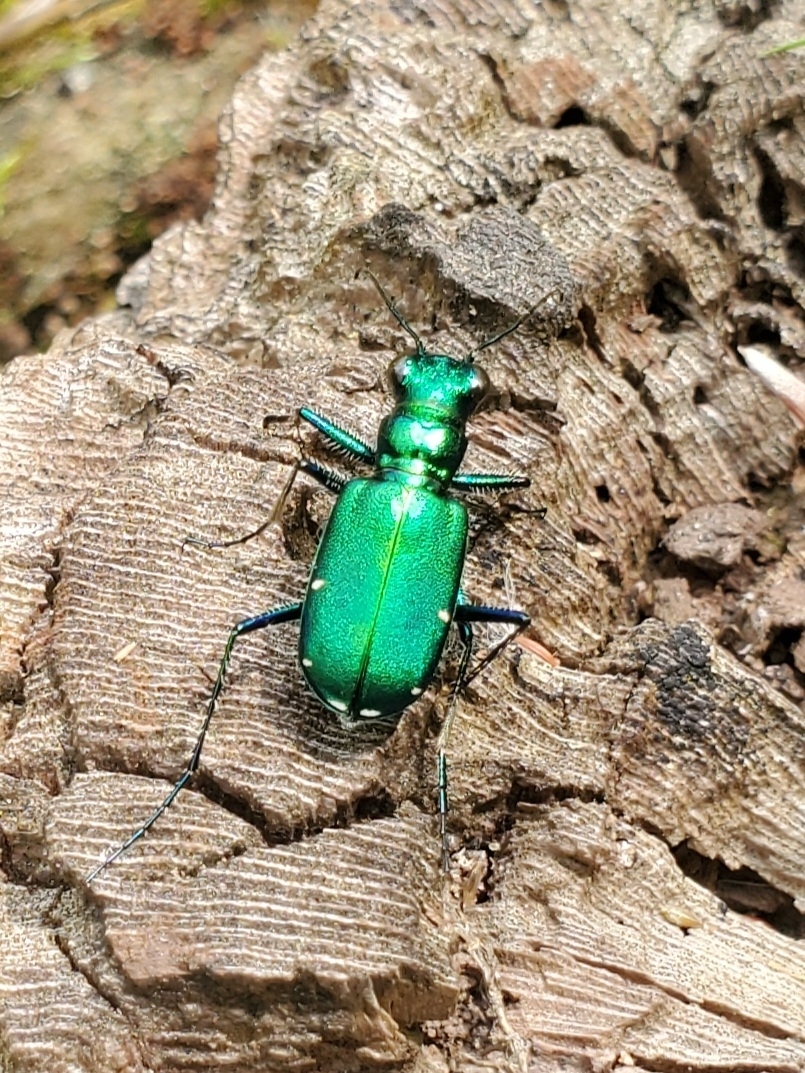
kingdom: Animalia
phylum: Arthropoda
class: Insecta
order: Coleoptera
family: Carabidae
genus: Cicindela
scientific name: Cicindela sexguttata
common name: Six-spotted tiger beetle
